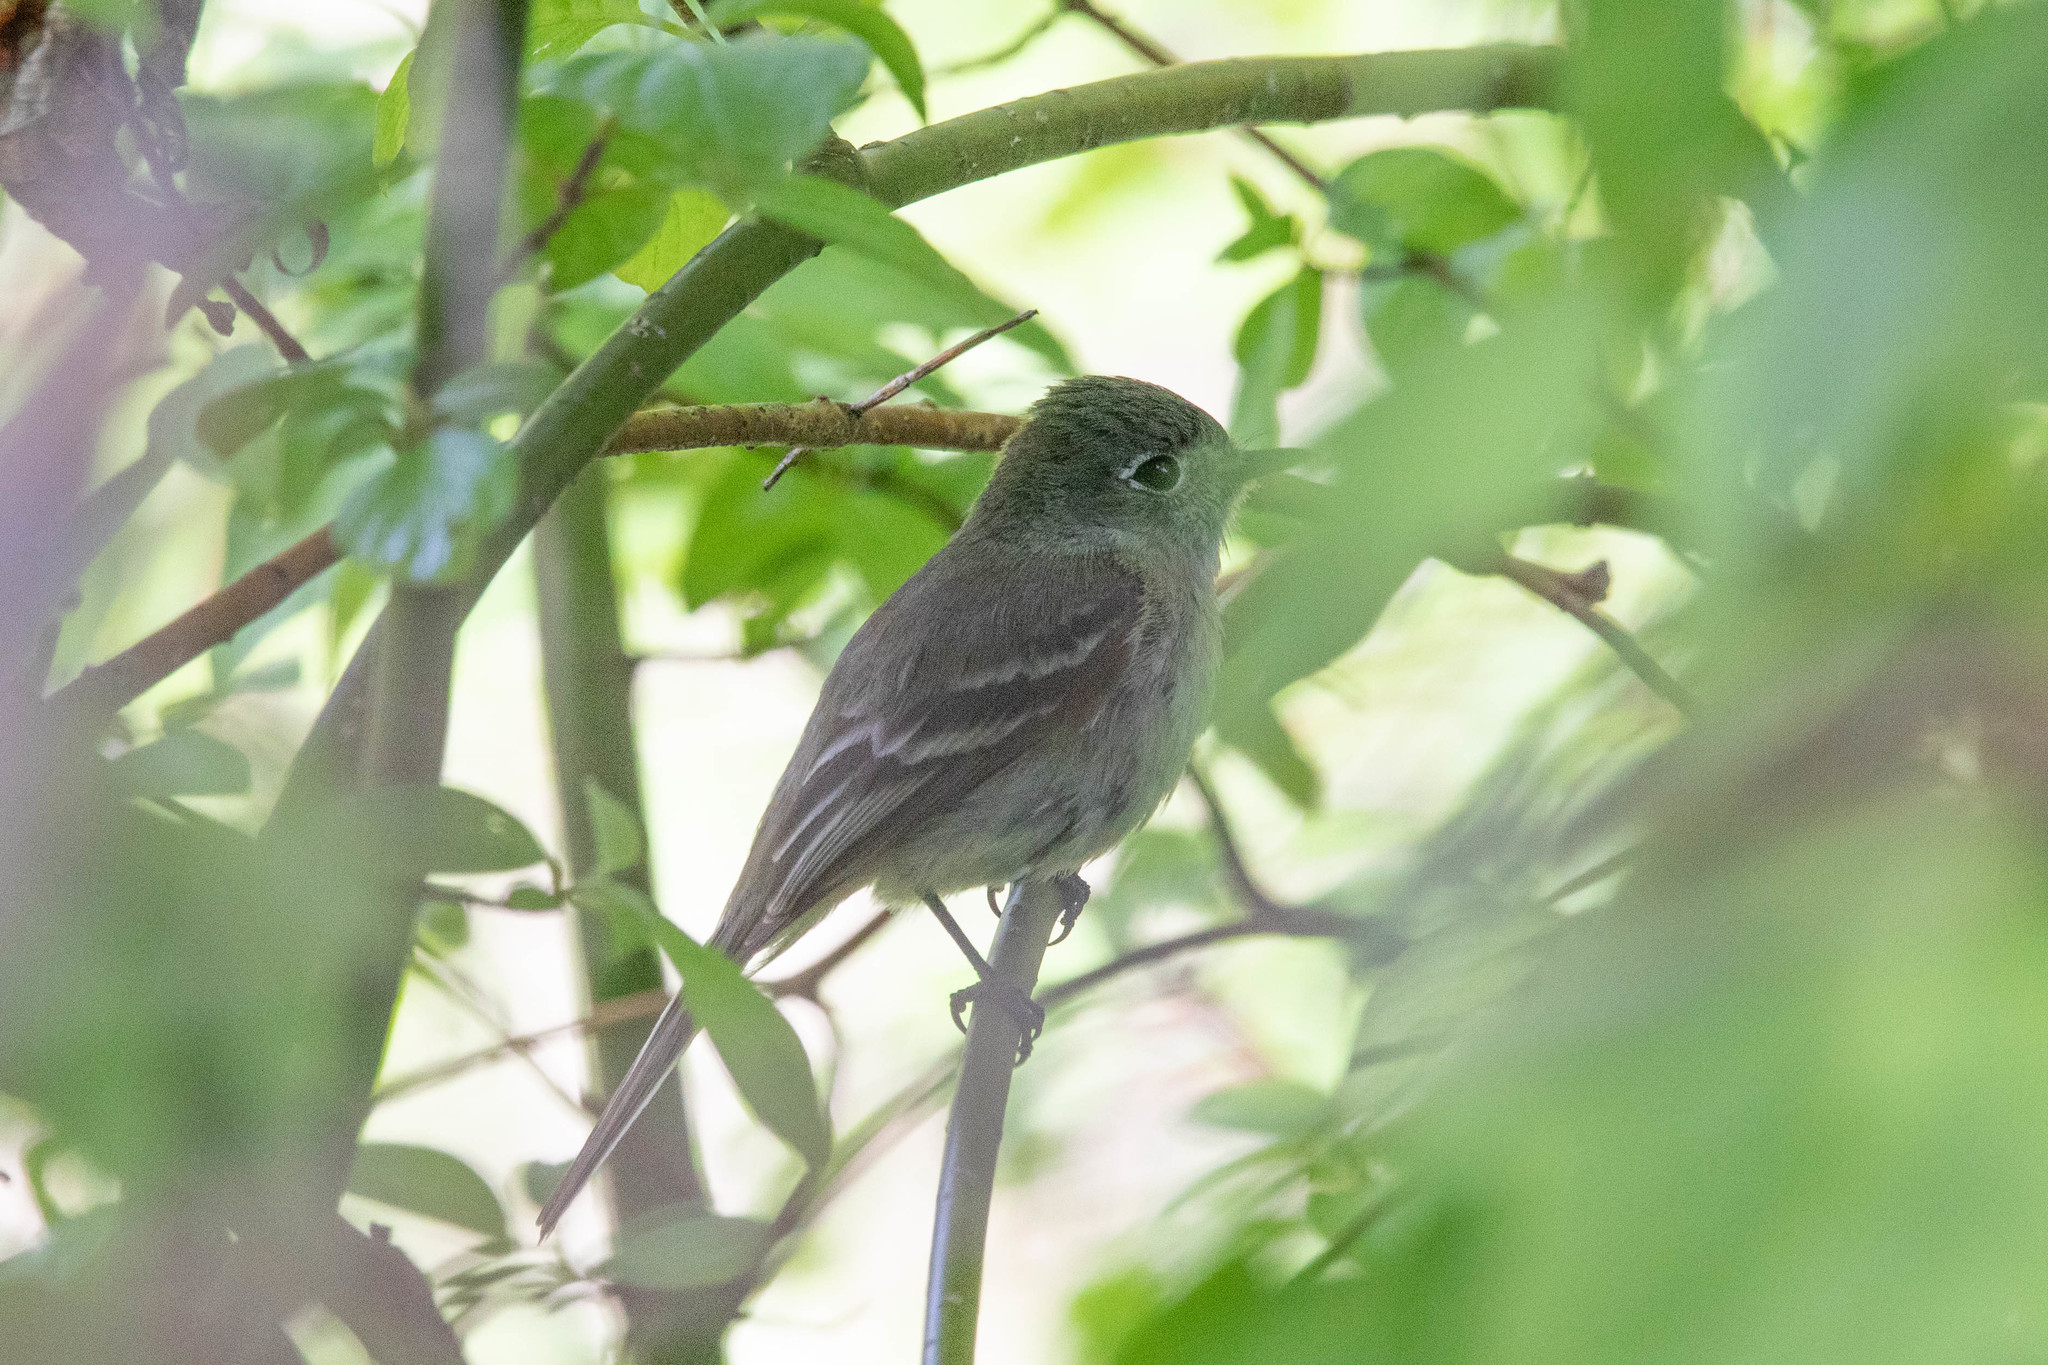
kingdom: Animalia
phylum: Chordata
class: Aves
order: Passeriformes
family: Tyrannidae
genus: Empidonax
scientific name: Empidonax oberholseri
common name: Dusky flycatcher
